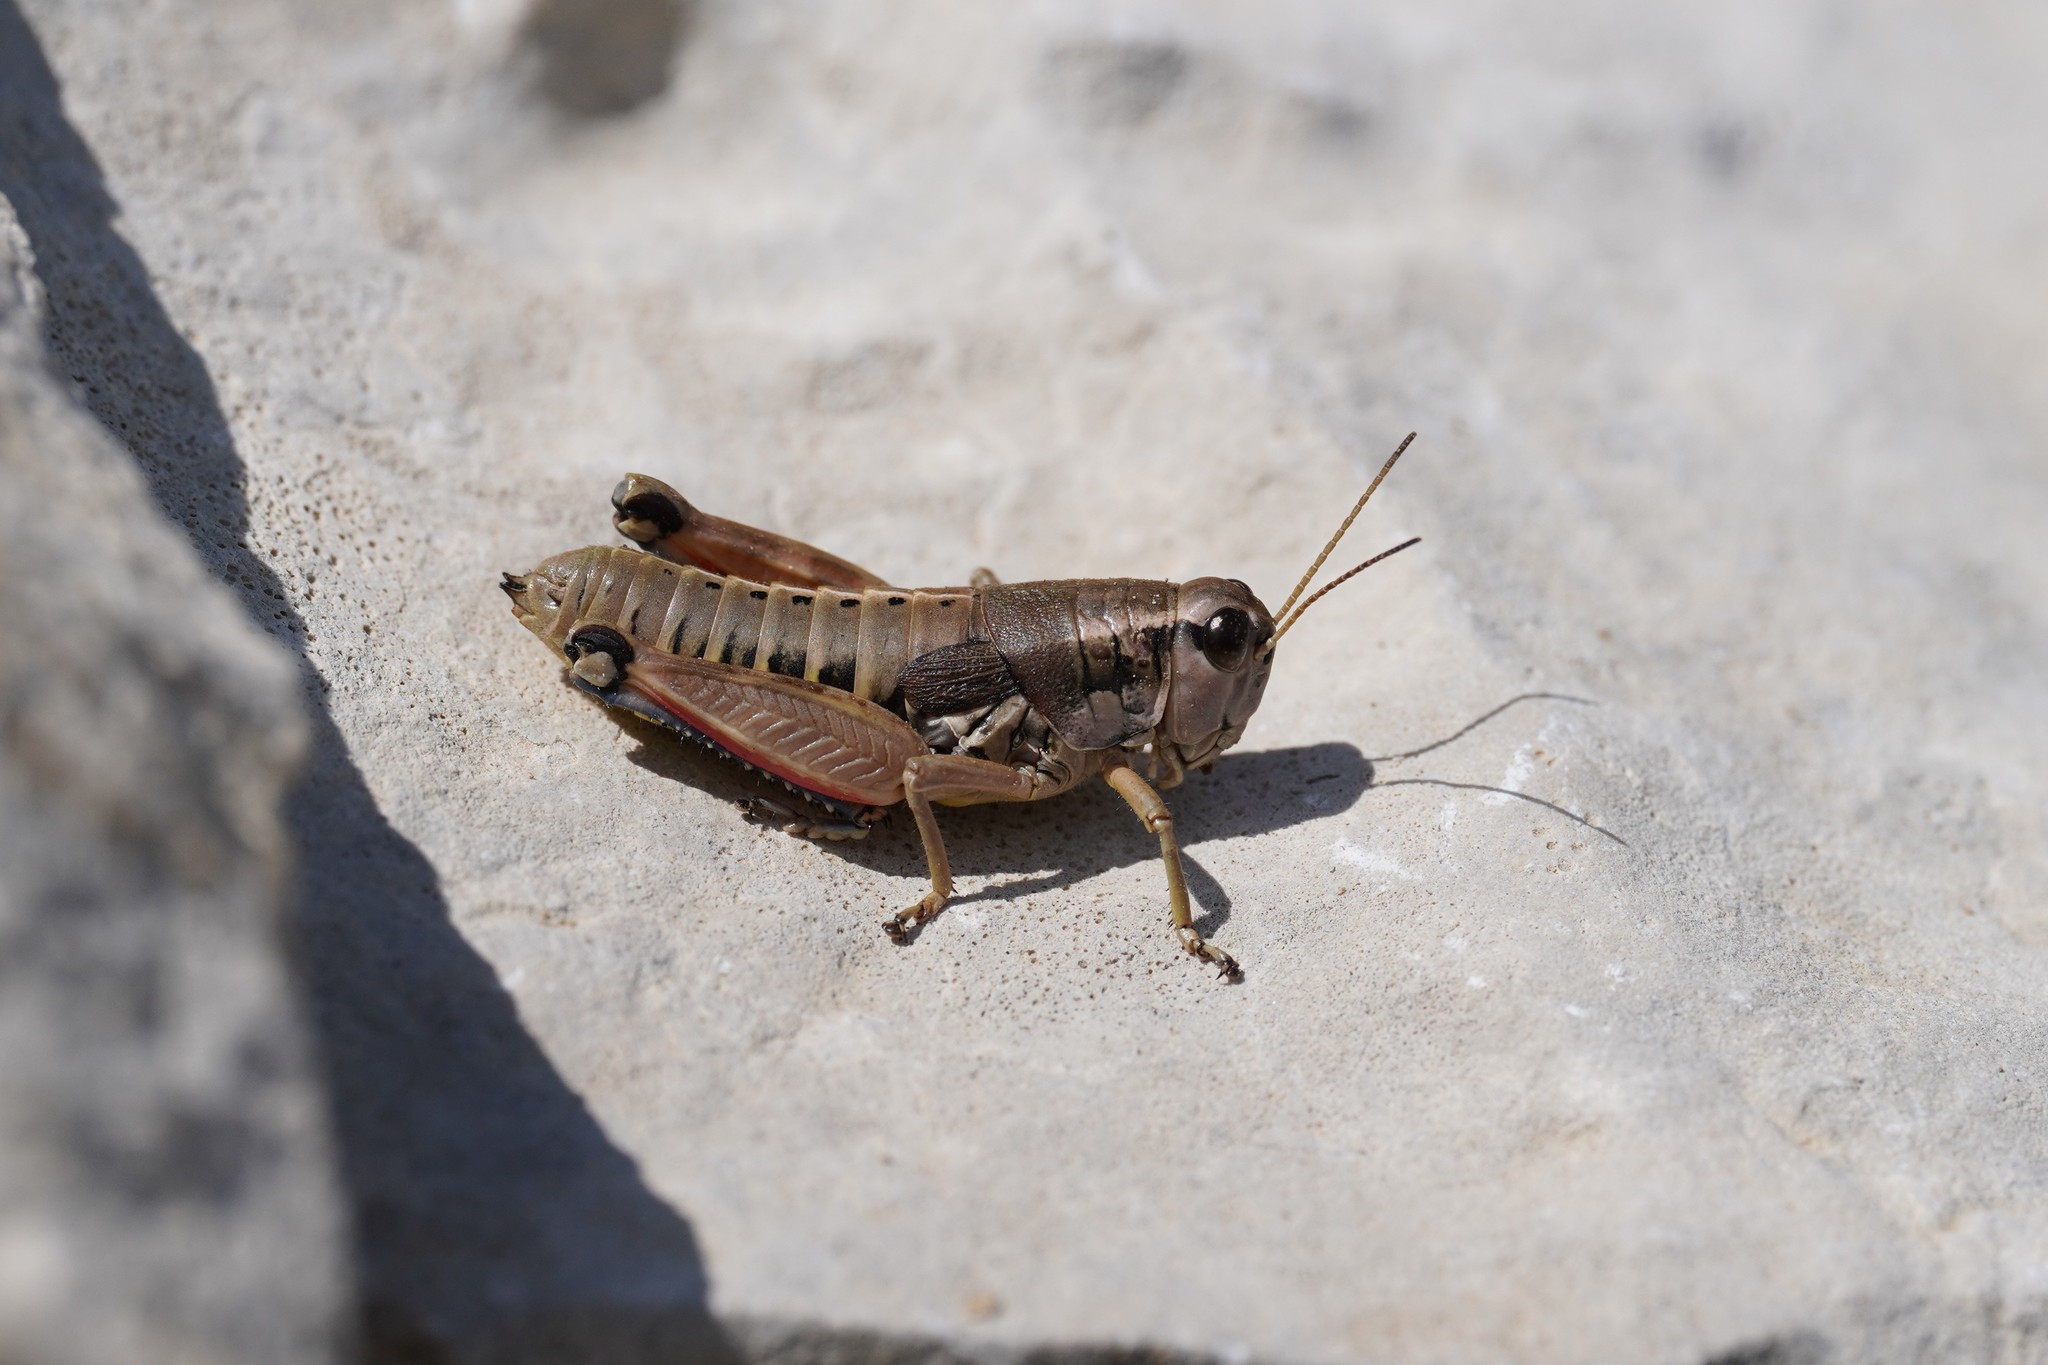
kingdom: Animalia
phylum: Arthropoda
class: Insecta
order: Orthoptera
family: Acrididae
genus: Podisma
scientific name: Podisma amedegnatoae
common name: Ventoux mountain grasshopper
